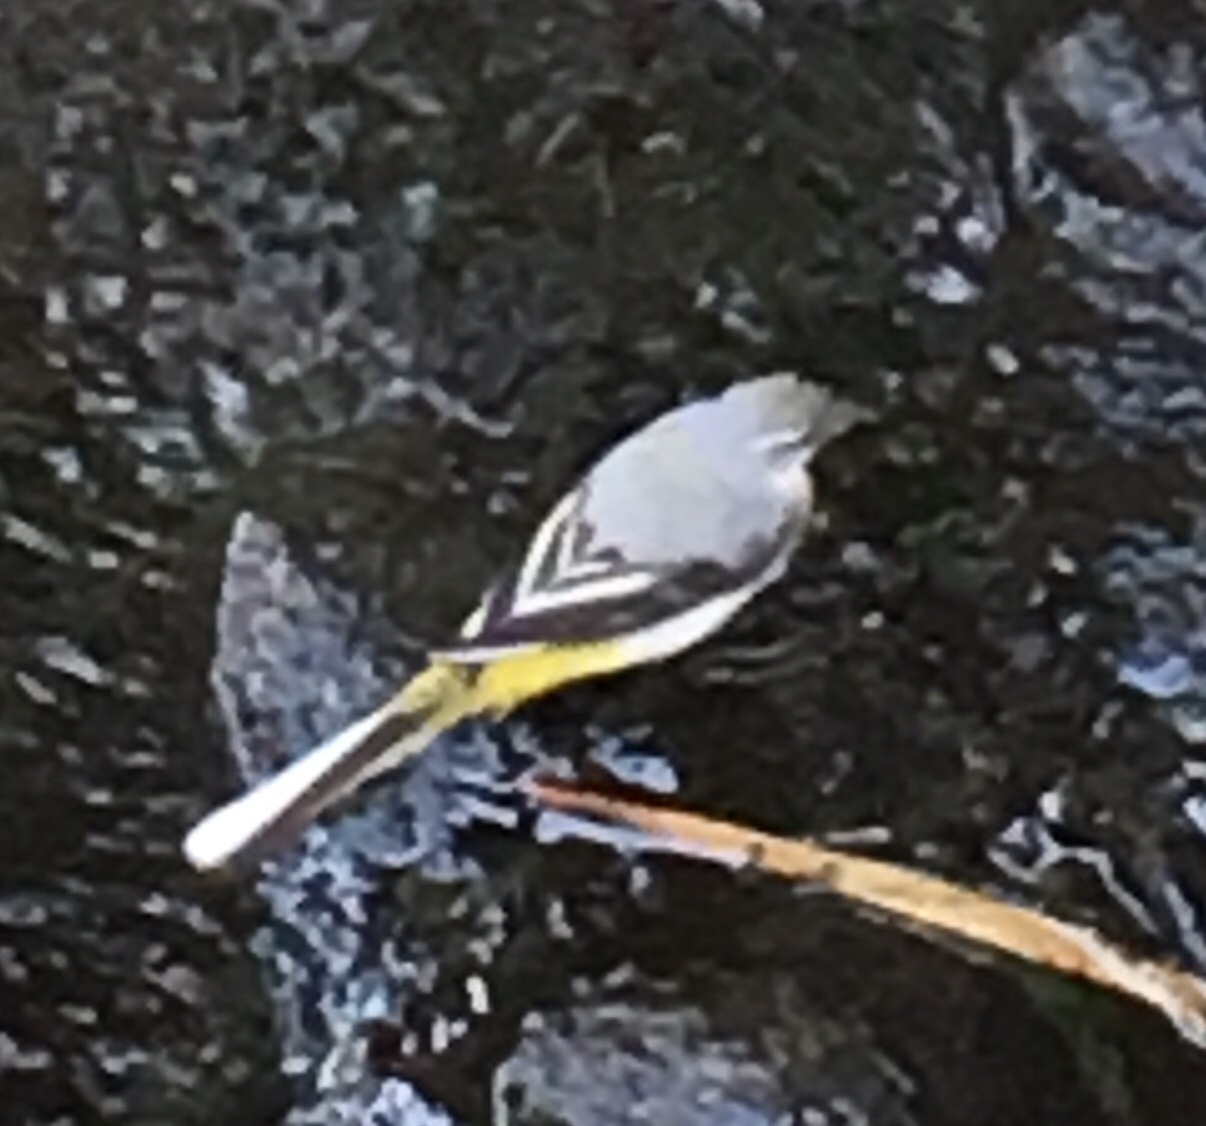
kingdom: Animalia
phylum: Chordata
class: Aves
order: Passeriformes
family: Motacillidae
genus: Motacilla
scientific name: Motacilla cinerea
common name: Grey wagtail
